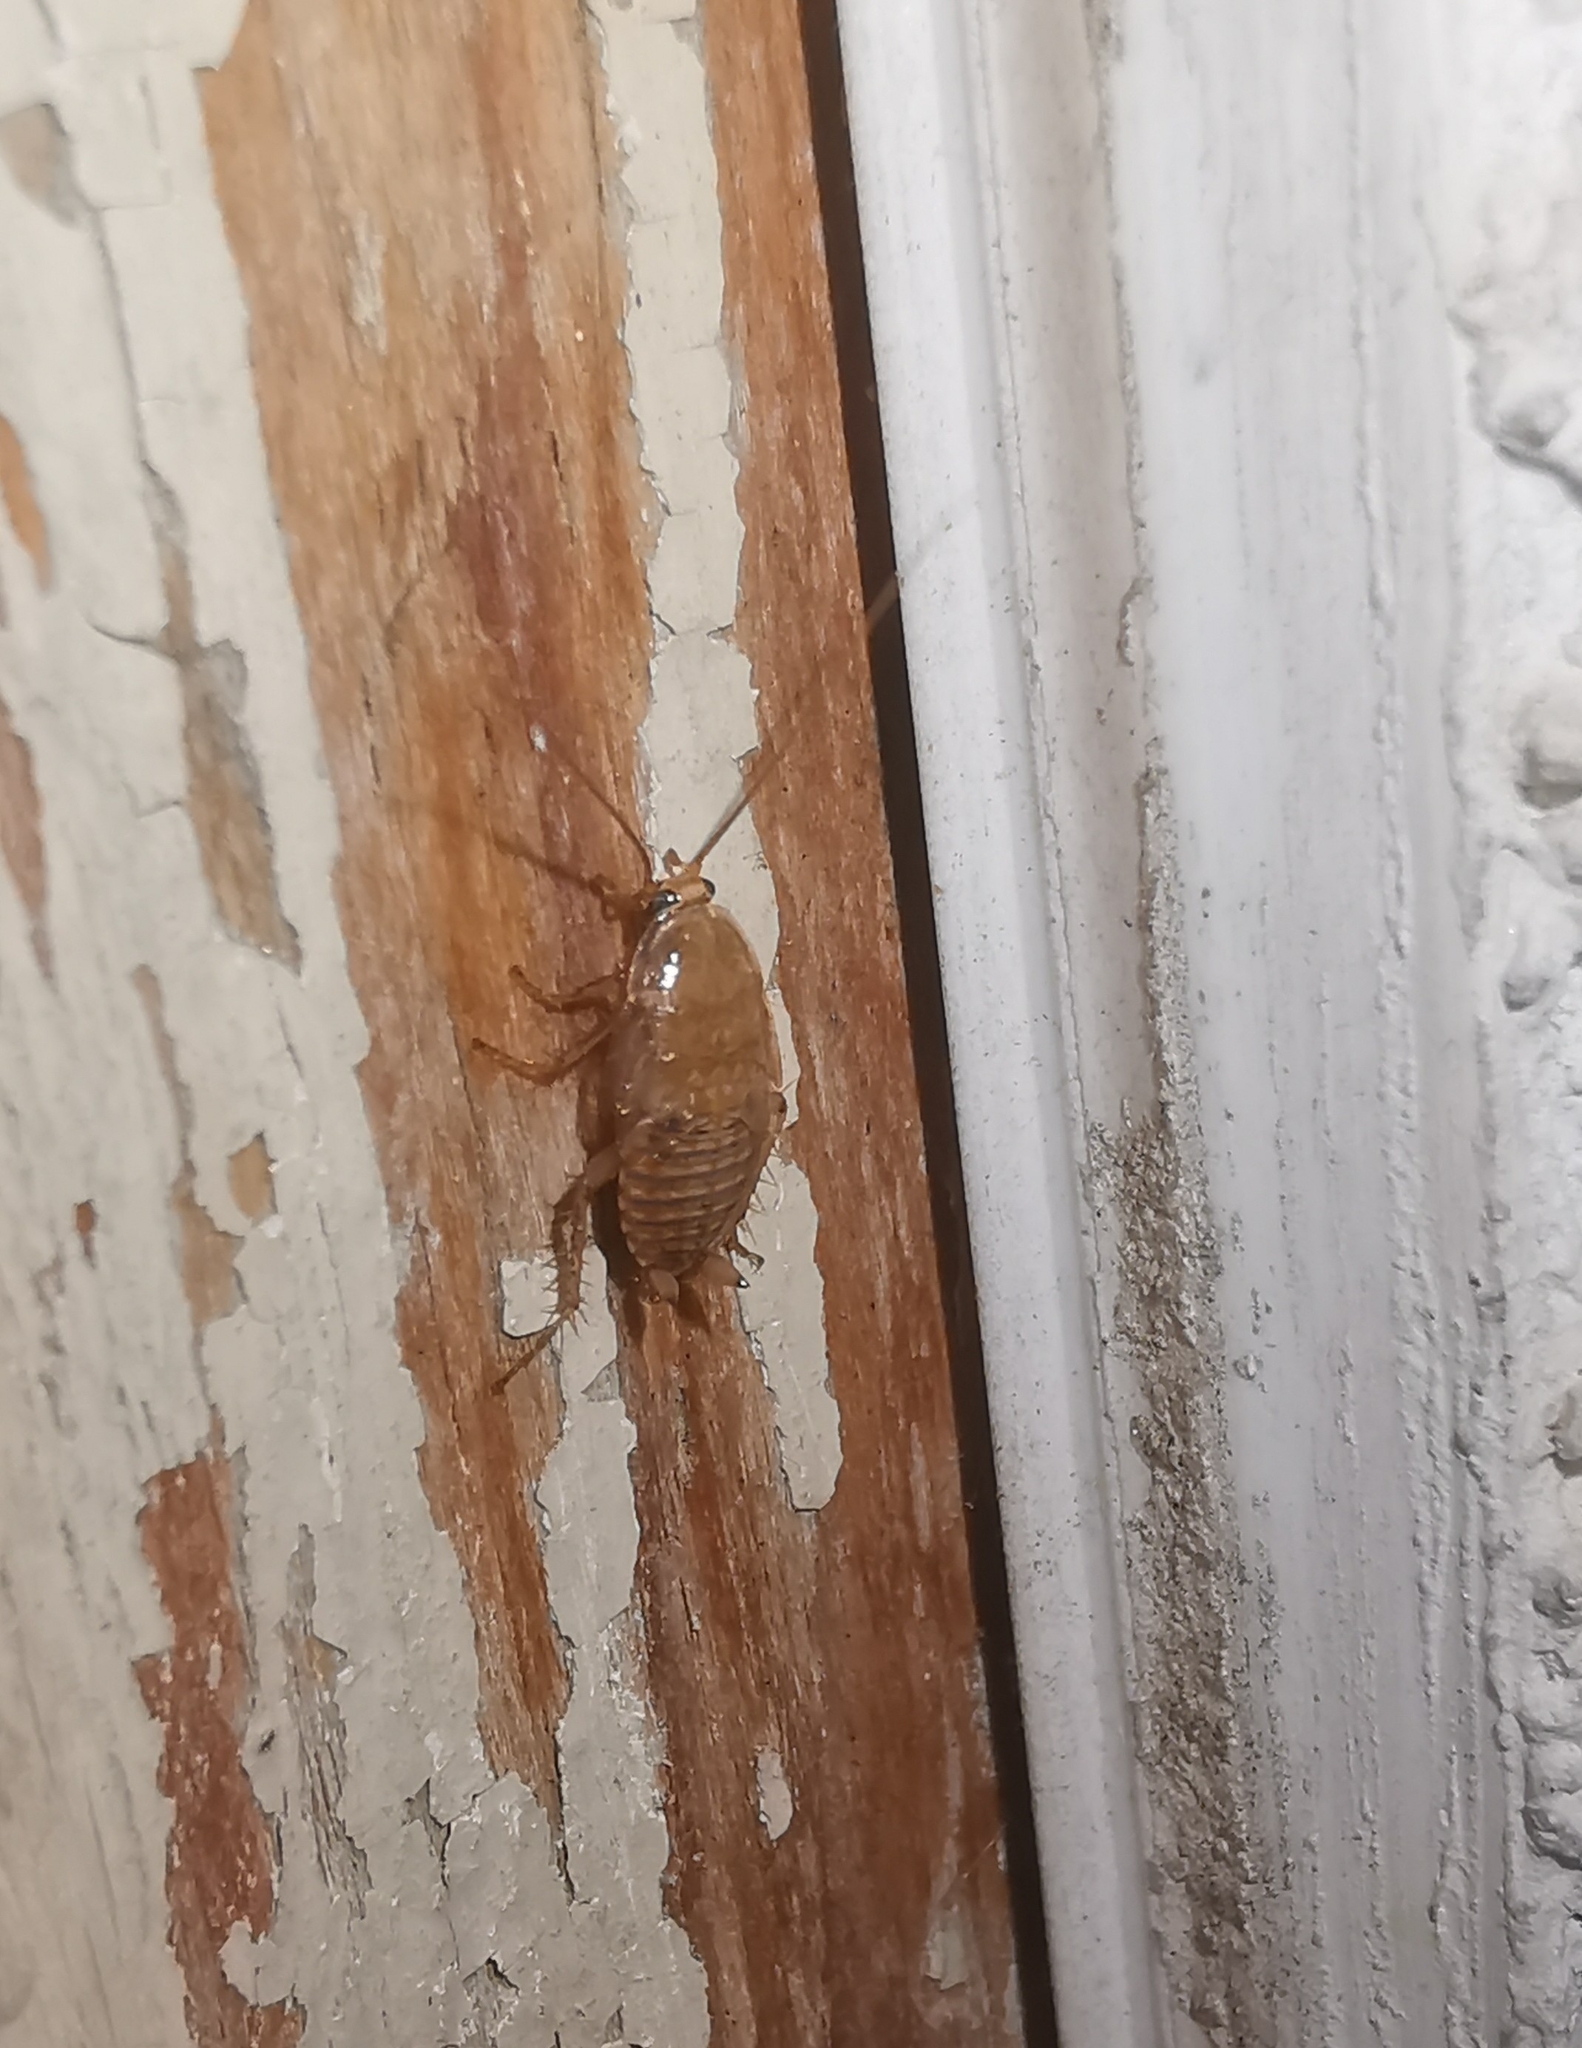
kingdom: Animalia
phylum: Arthropoda
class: Insecta
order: Blattodea
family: Ectobiidae
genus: Ectobius
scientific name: Ectobius vittiventris
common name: Garden cockroach
